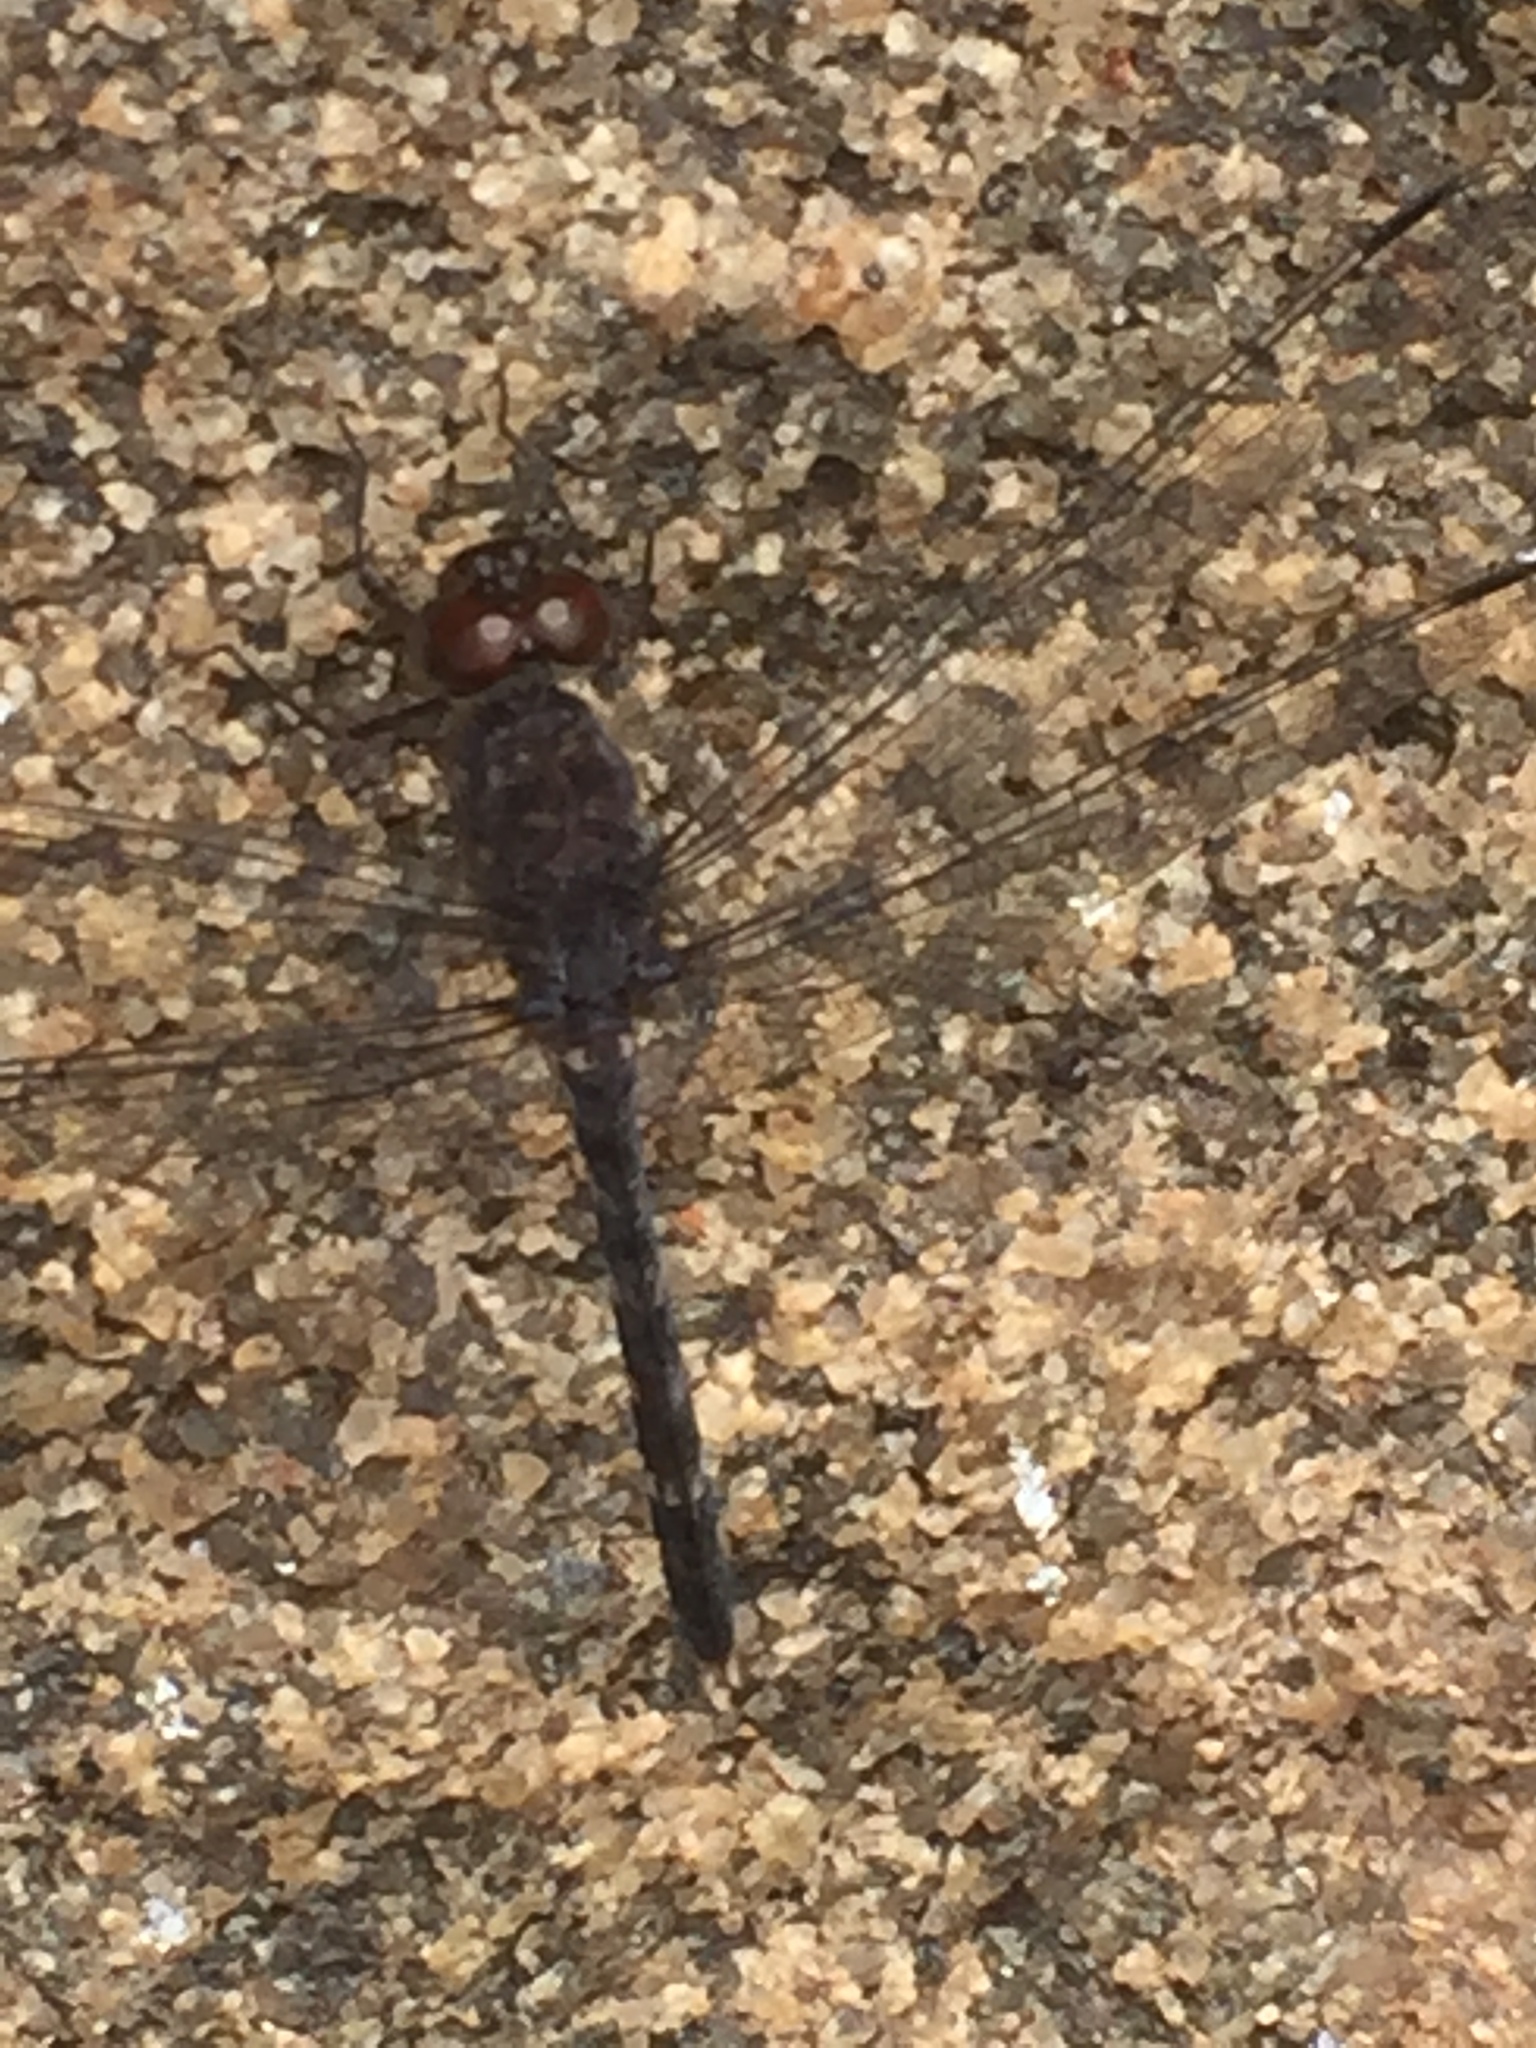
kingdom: Animalia
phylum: Arthropoda
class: Insecta
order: Odonata
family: Libellulidae
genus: Bradinopyga
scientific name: Bradinopyga geminata
